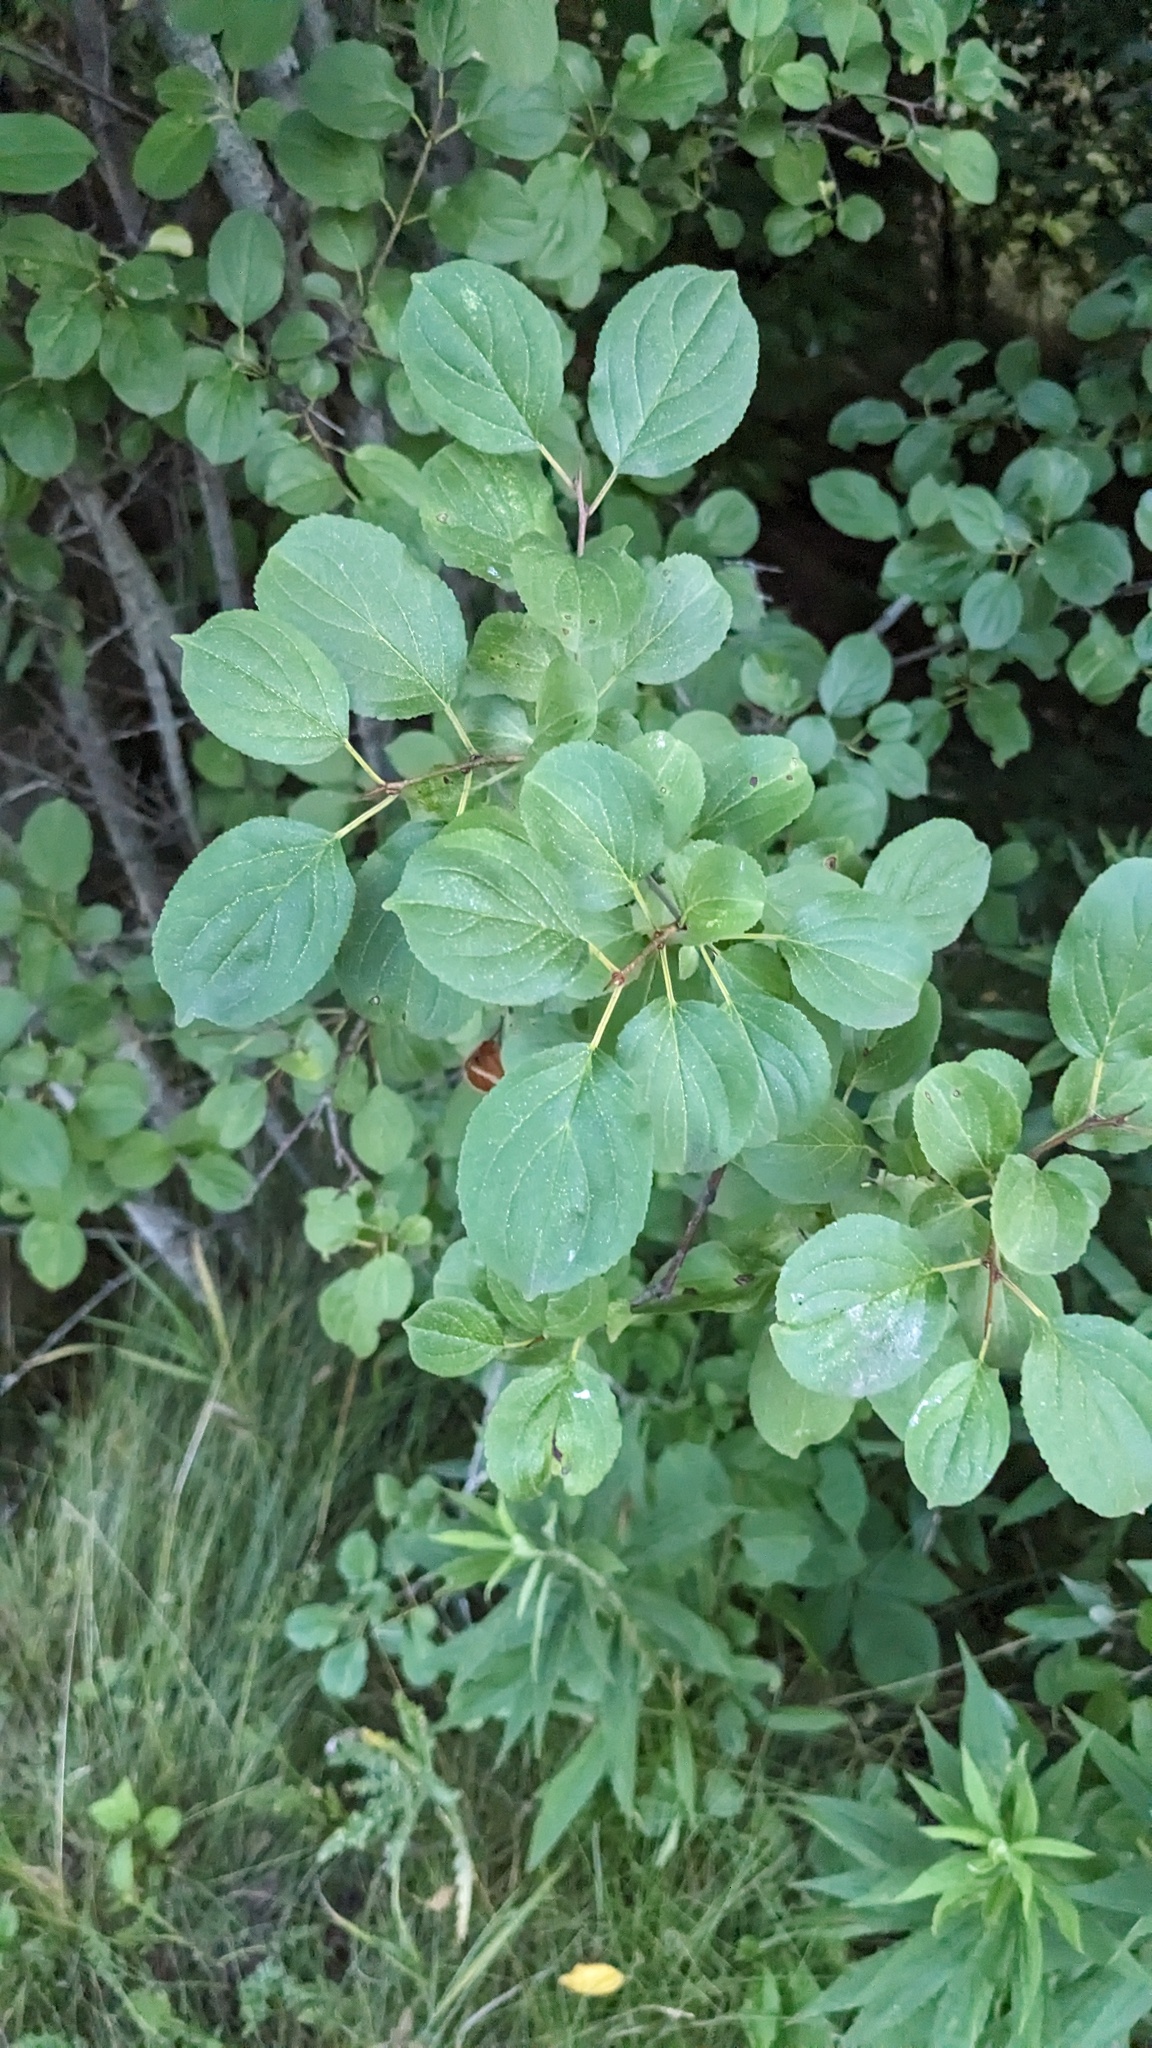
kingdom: Plantae
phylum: Tracheophyta
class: Magnoliopsida
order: Rosales
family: Rhamnaceae
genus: Rhamnus
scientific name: Rhamnus cathartica
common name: Common buckthorn
